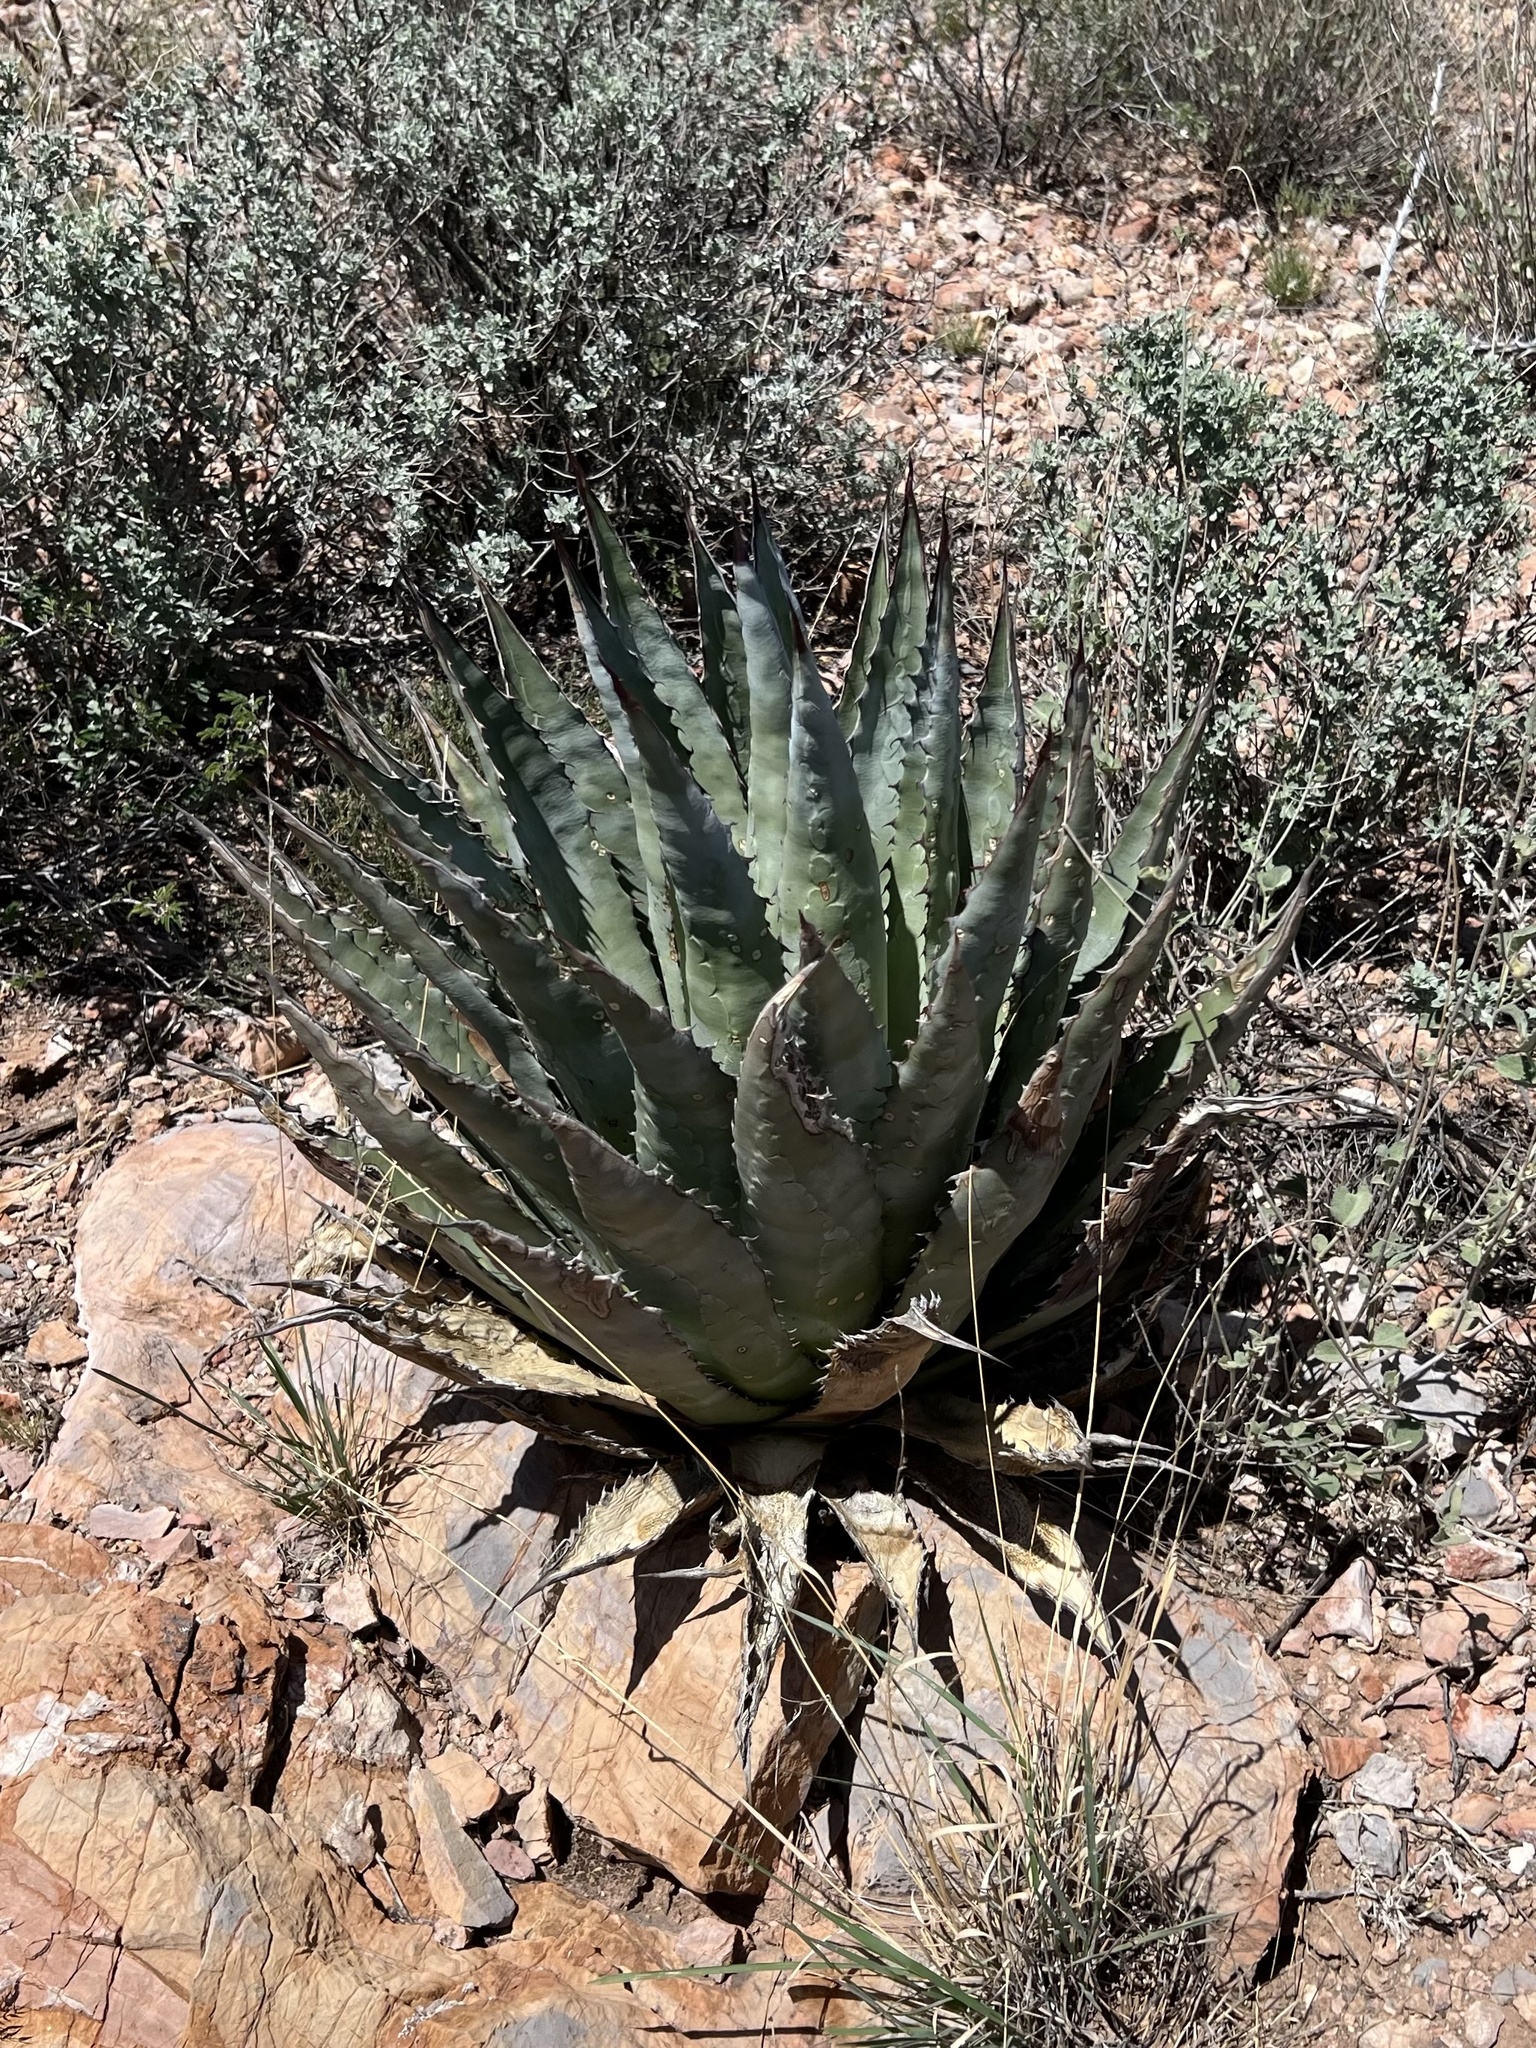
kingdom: Plantae
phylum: Tracheophyta
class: Liliopsida
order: Asparagales
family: Asparagaceae
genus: Agave
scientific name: Agave palmeri
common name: Palmer agave
